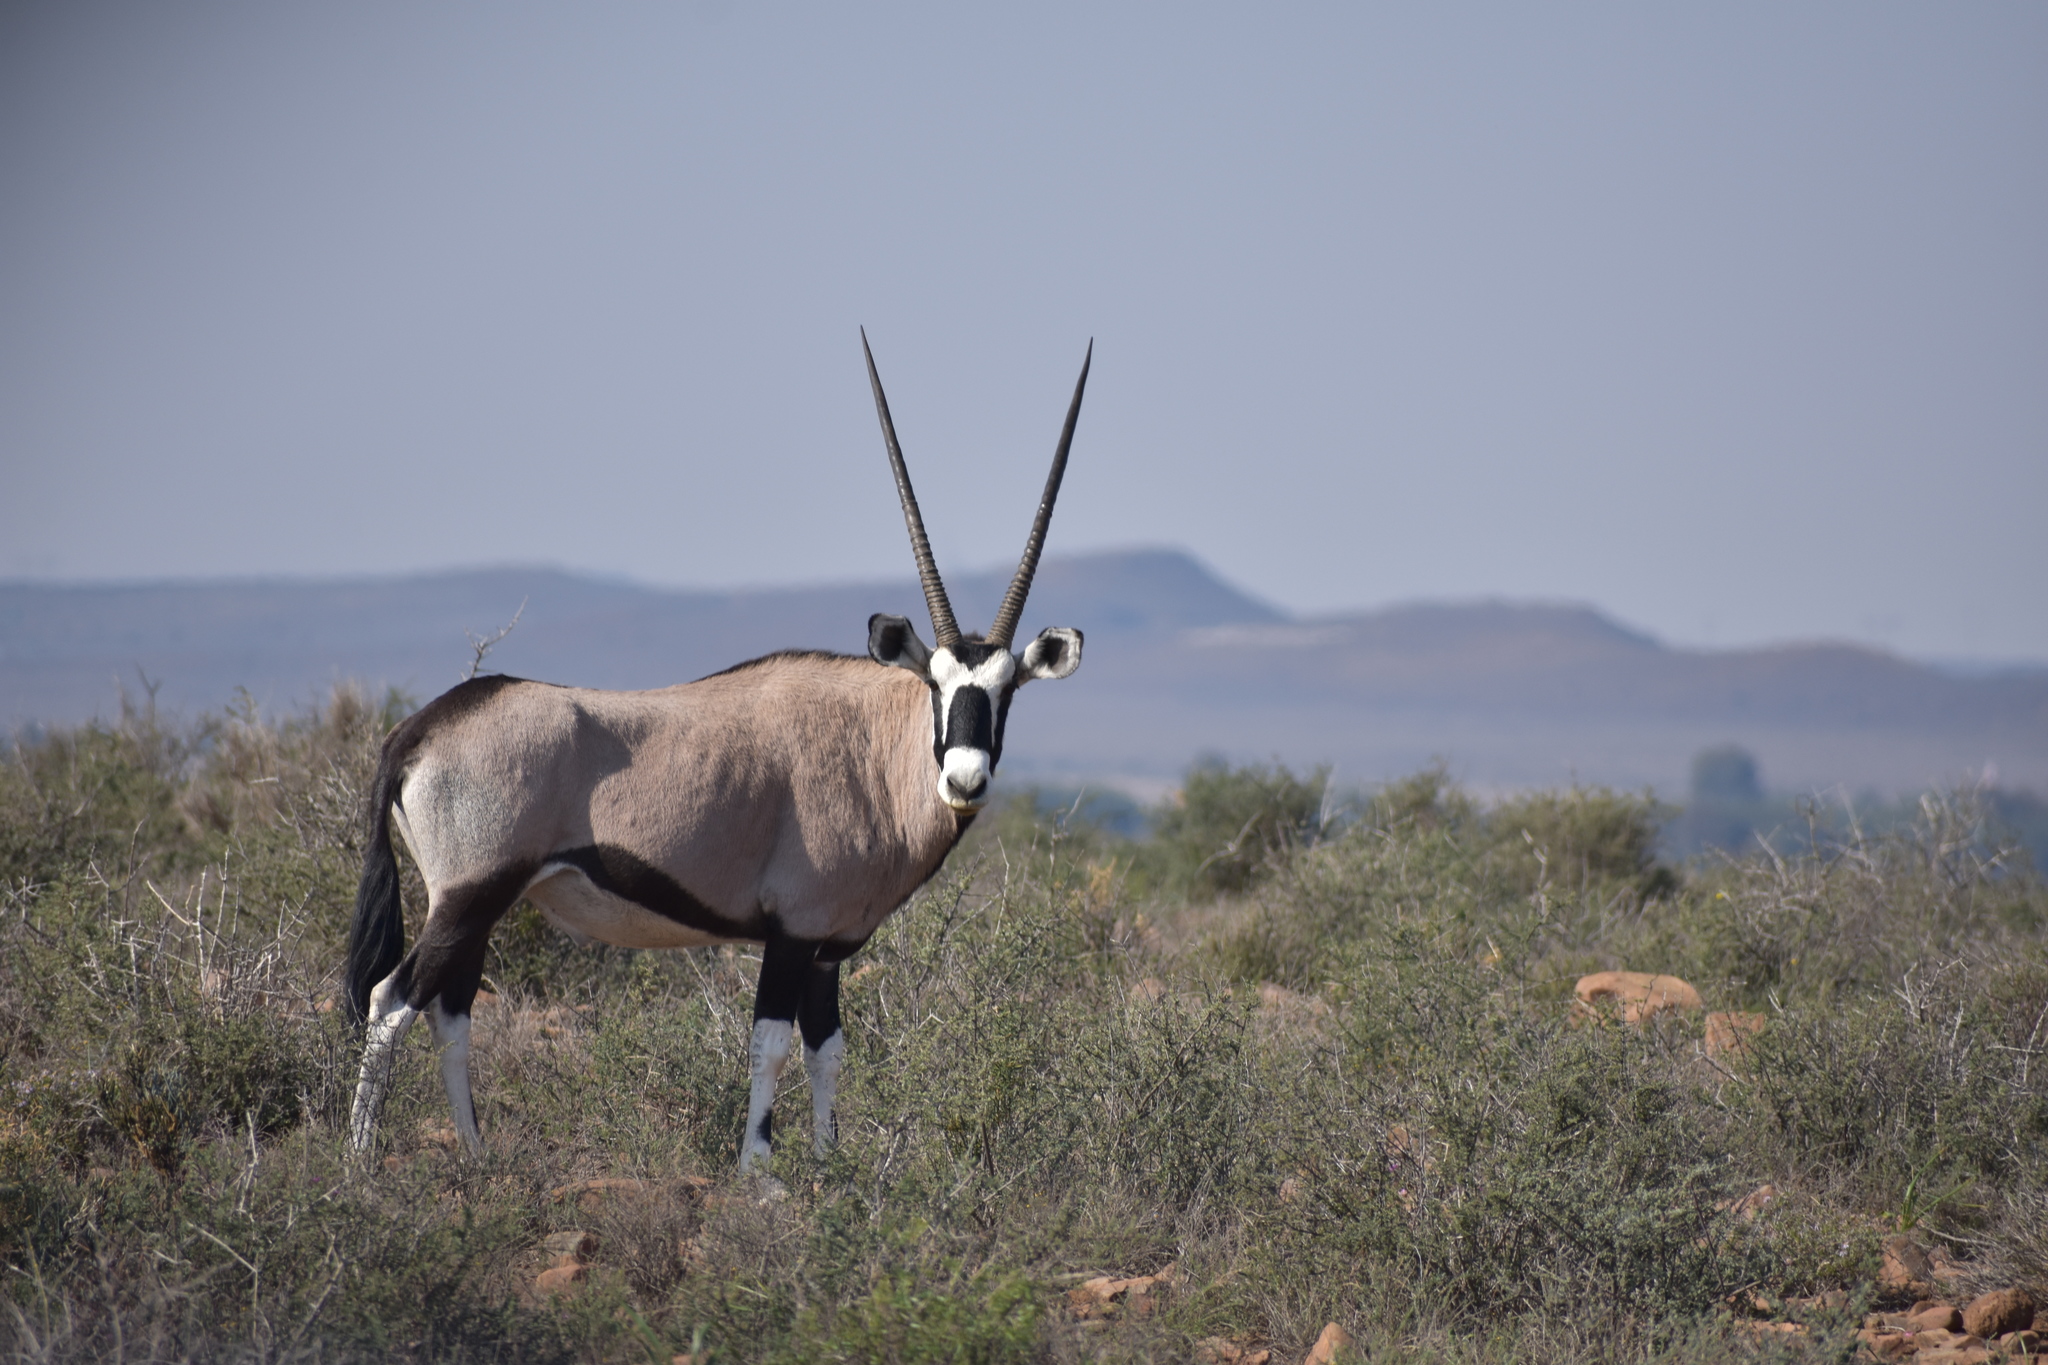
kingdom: Animalia
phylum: Chordata
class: Mammalia
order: Artiodactyla
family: Bovidae
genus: Oryx
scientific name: Oryx gazella
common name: Gemsbok
